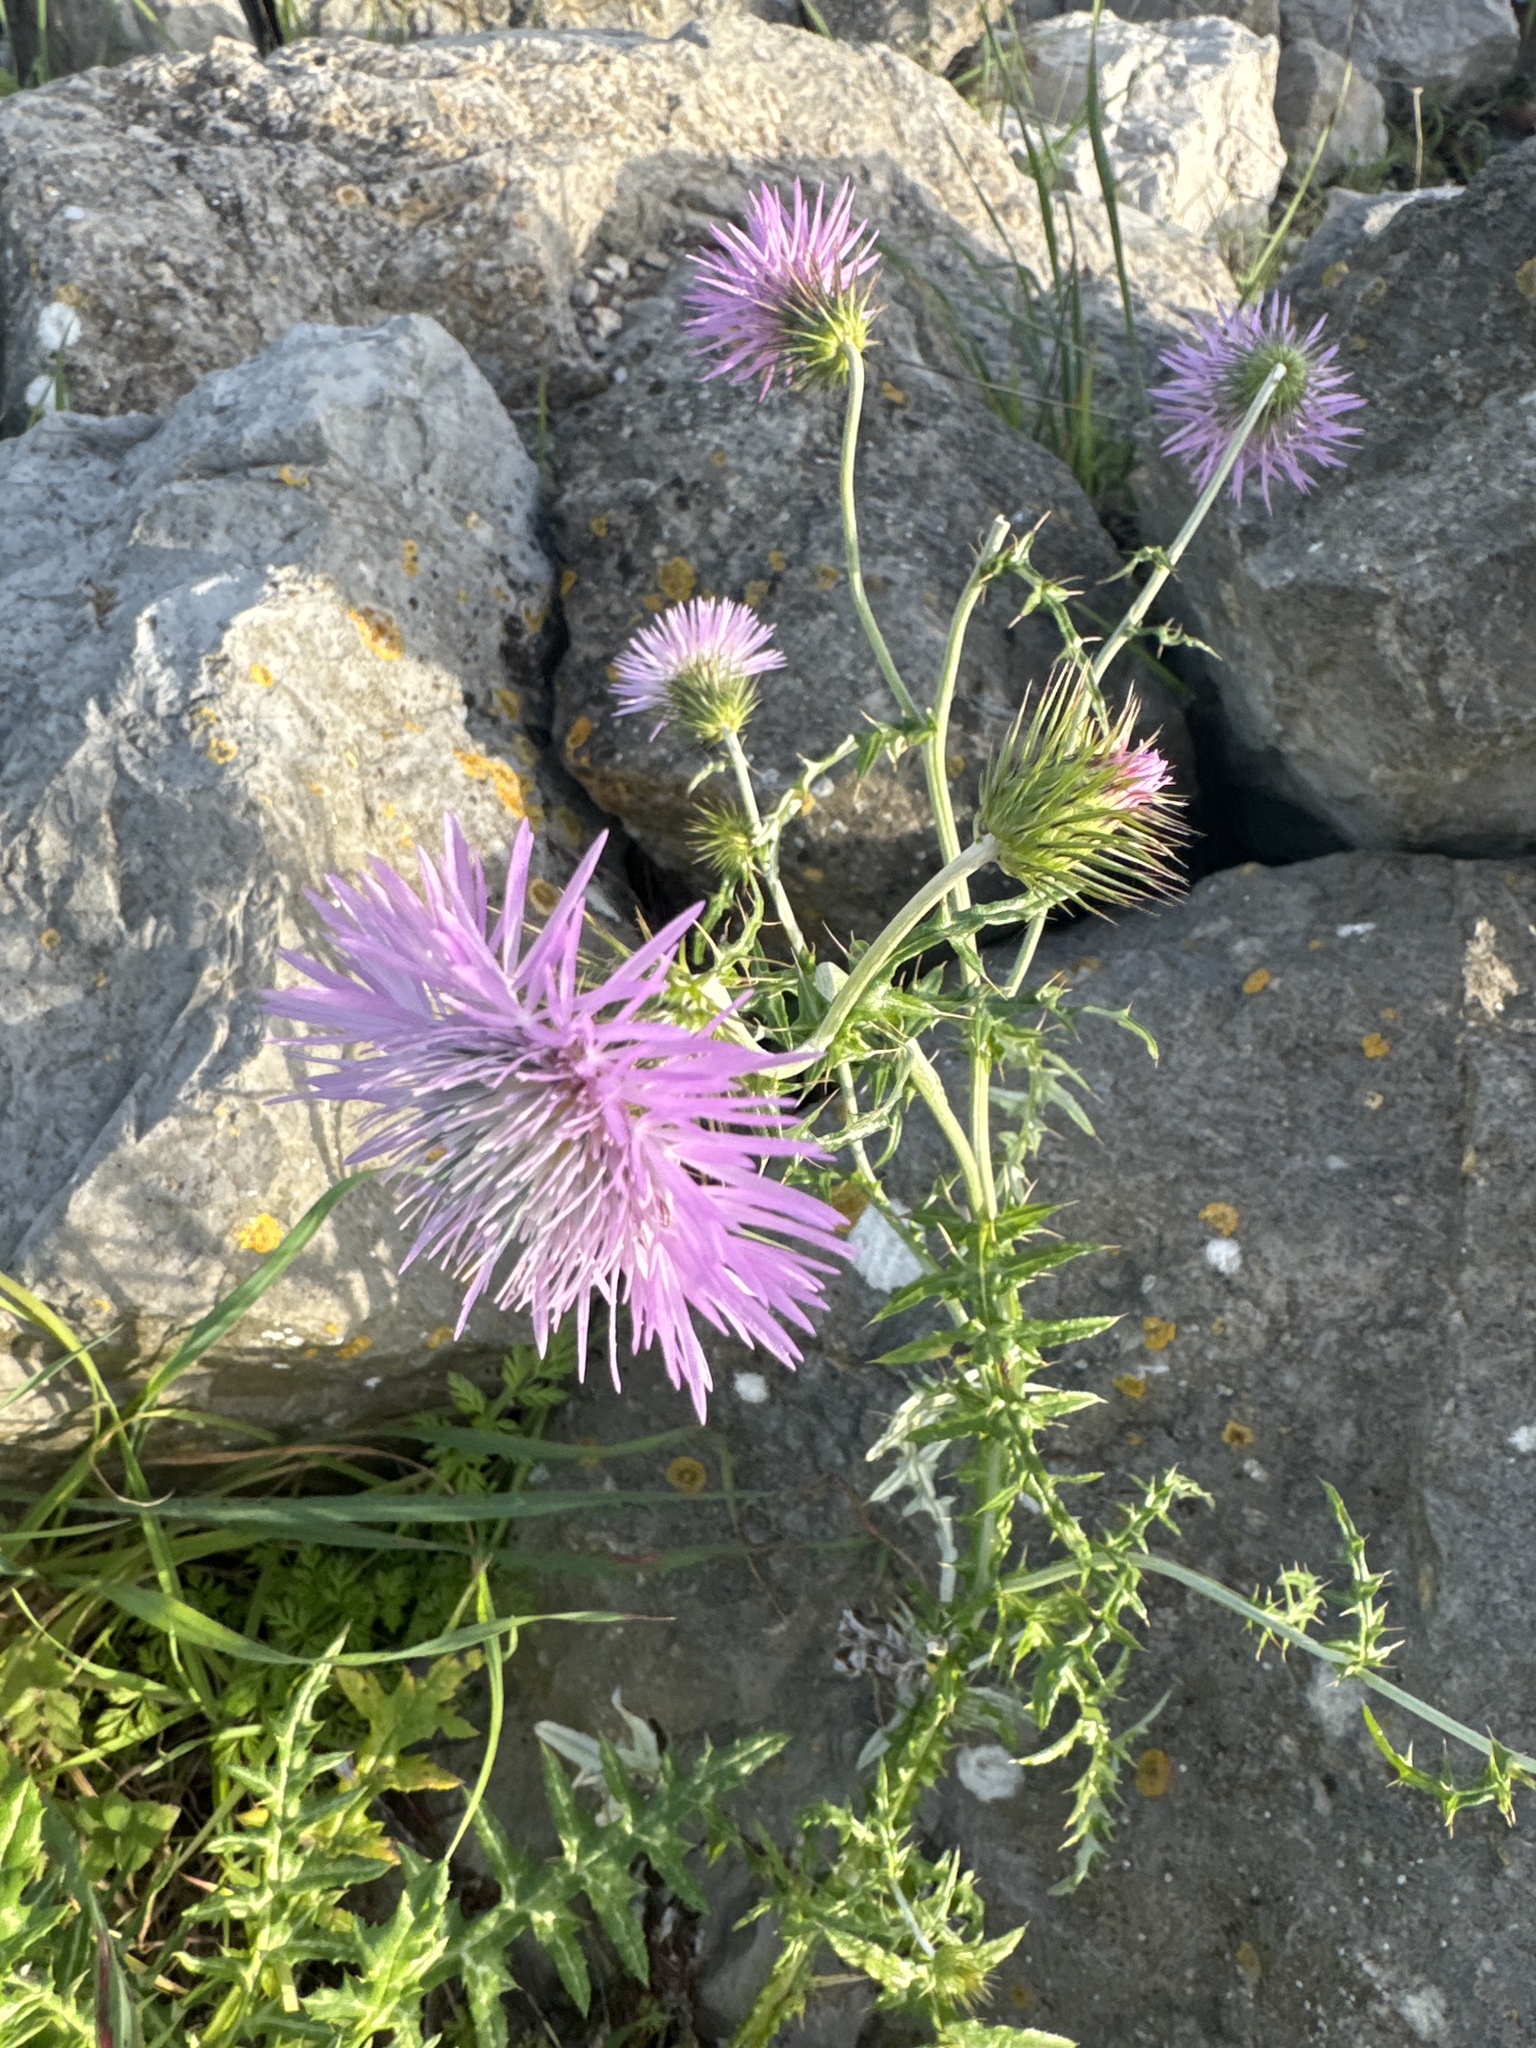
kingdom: Plantae
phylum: Tracheophyta
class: Magnoliopsida
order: Asterales
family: Asteraceae
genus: Galactites
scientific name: Galactites tomentosa
